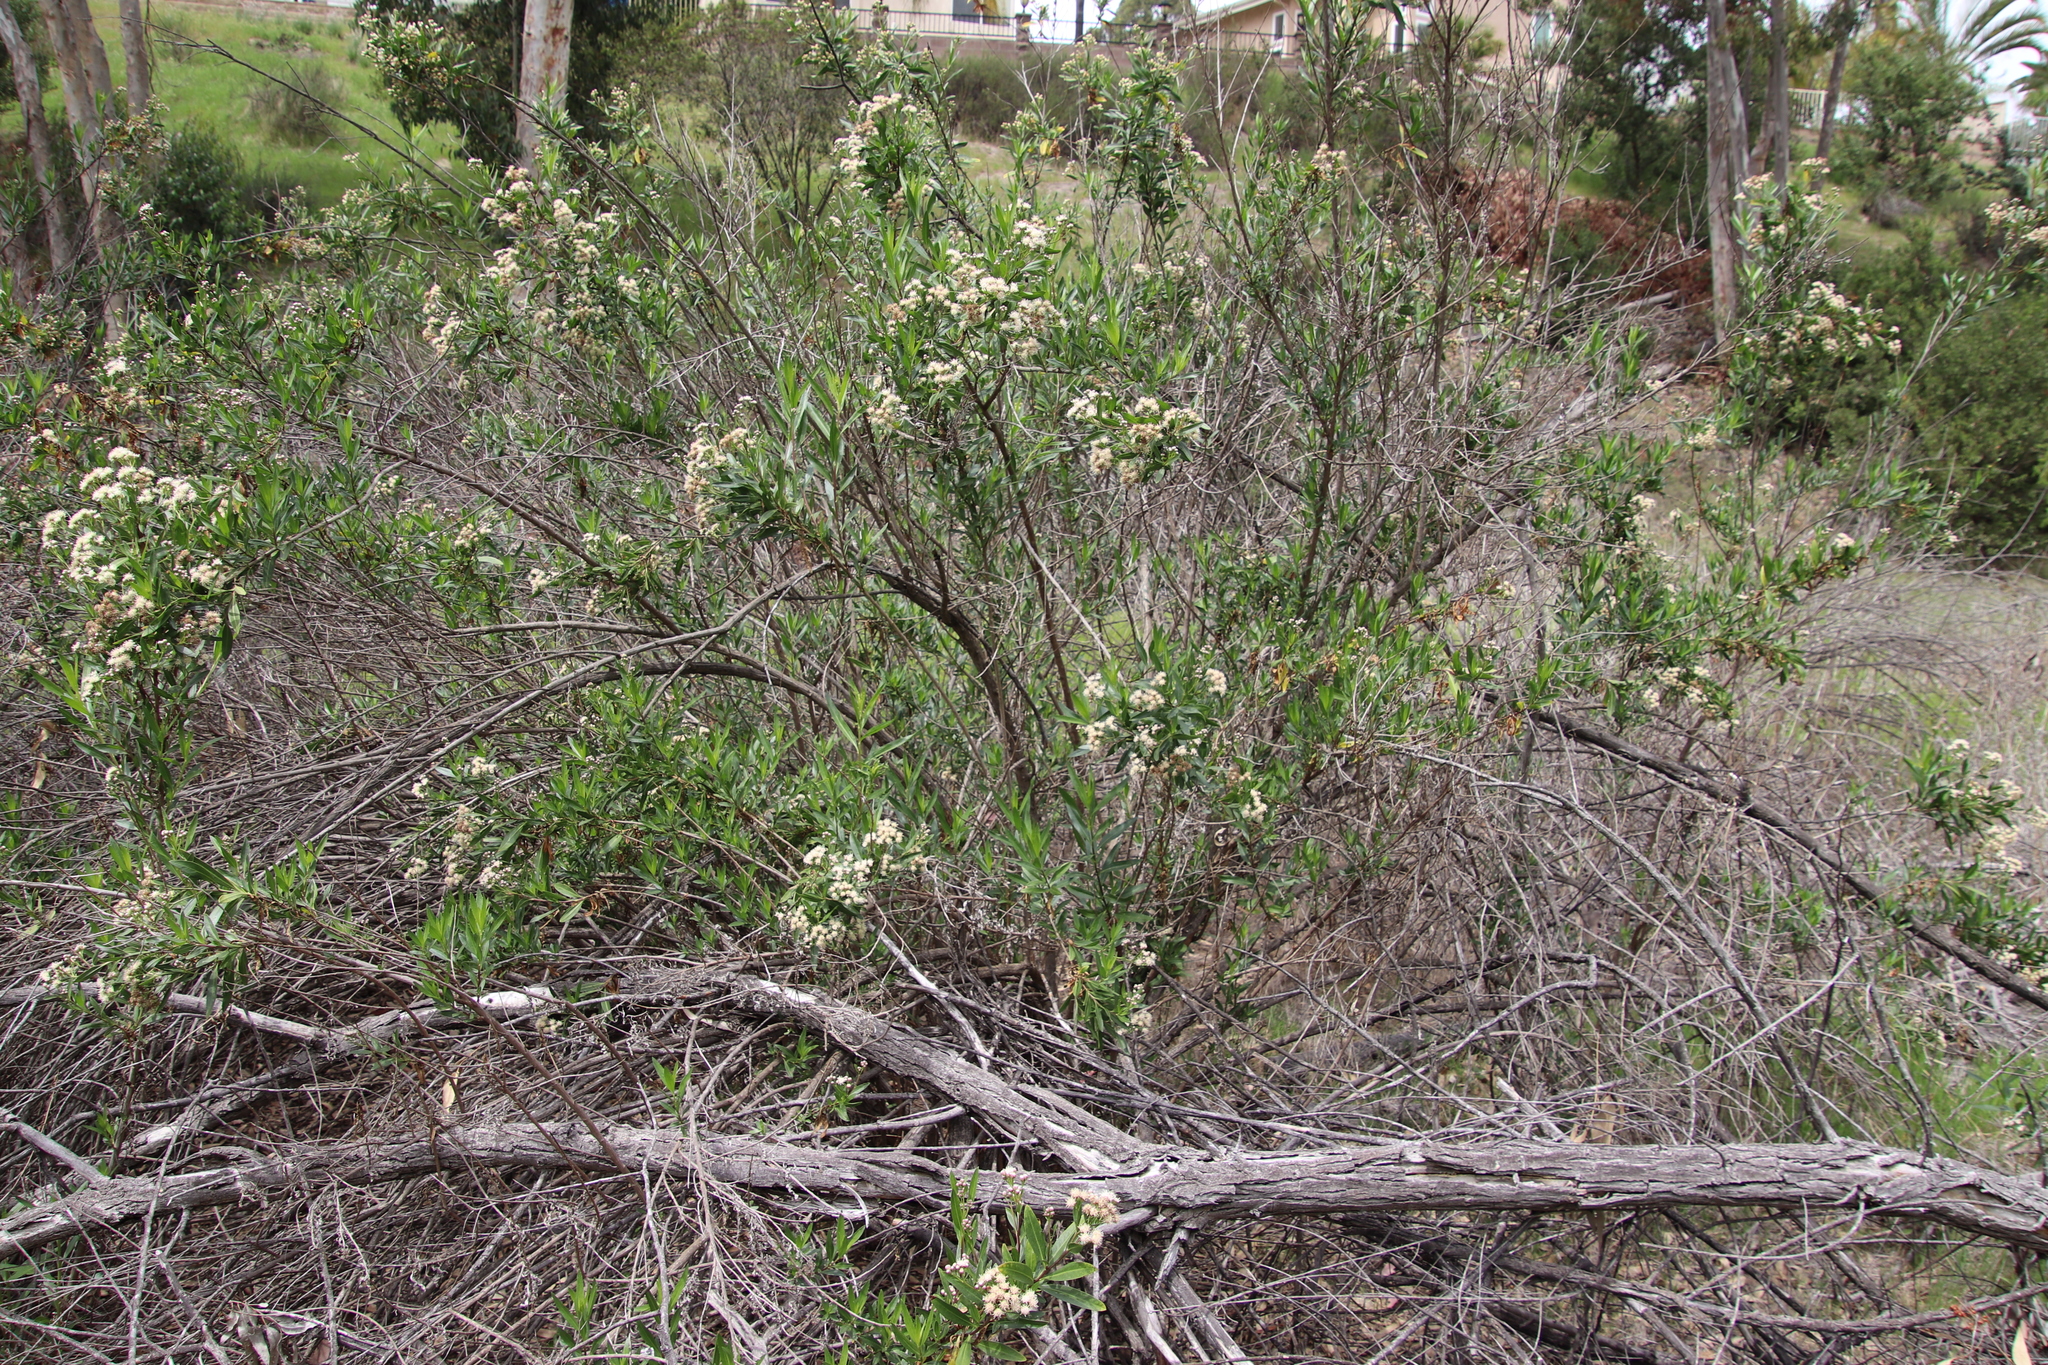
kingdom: Plantae
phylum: Tracheophyta
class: Magnoliopsida
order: Asterales
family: Asteraceae
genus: Baccharis
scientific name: Baccharis salicifolia
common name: Sticky baccharis
